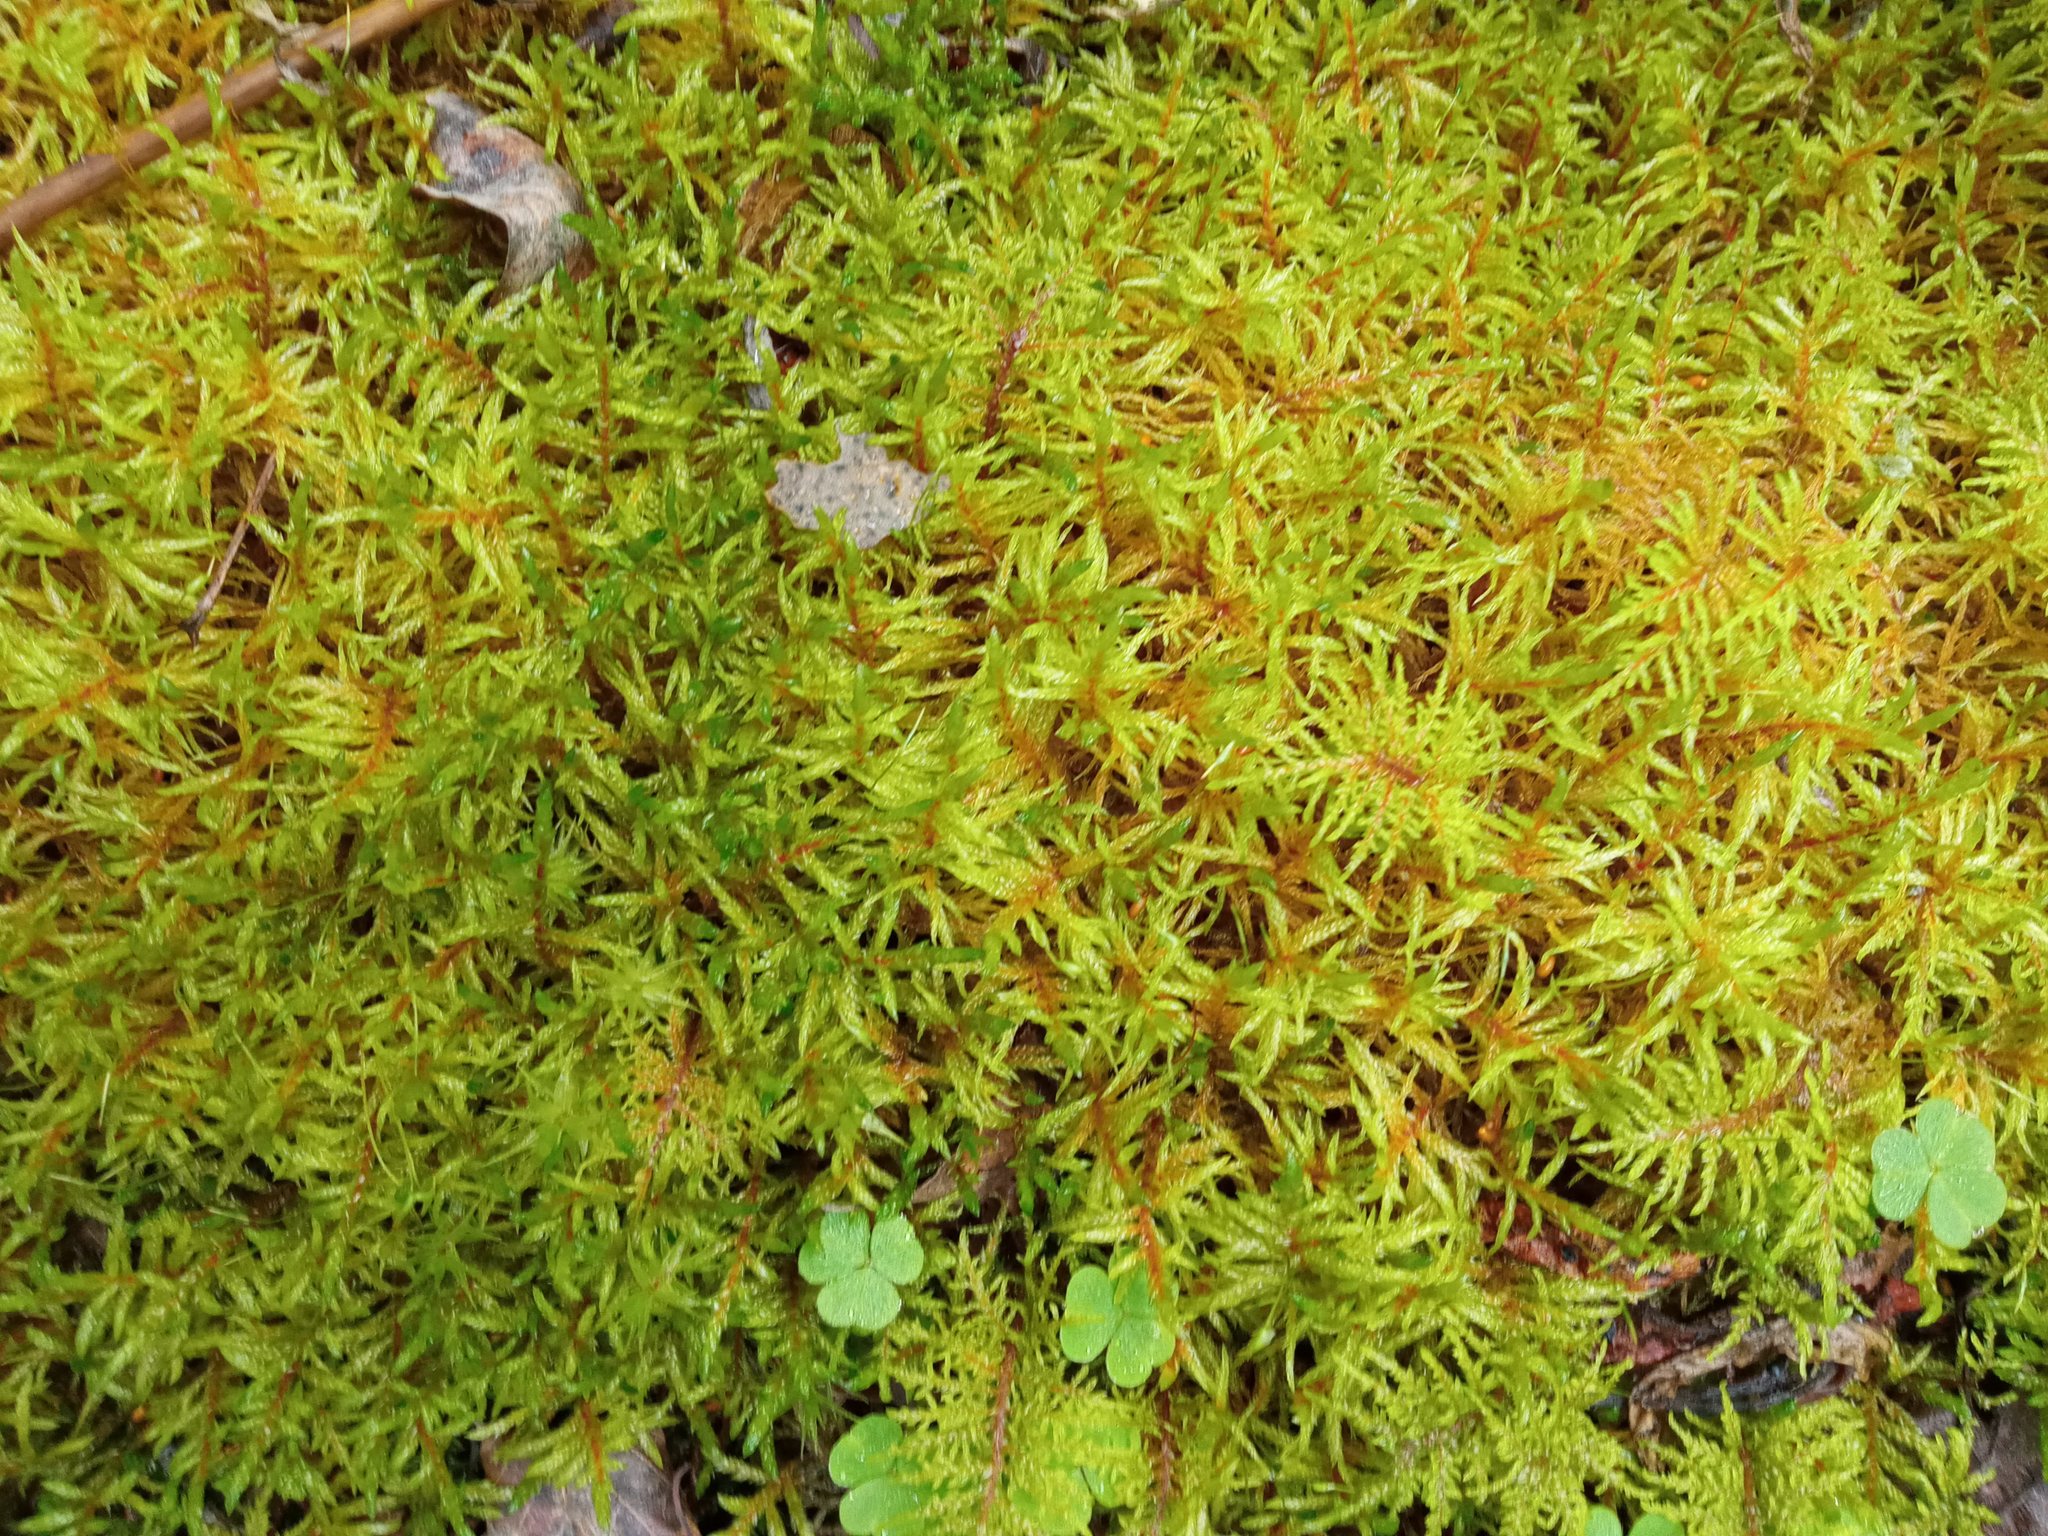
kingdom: Plantae
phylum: Bryophyta
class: Bryopsida
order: Hypnales
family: Hylocomiaceae
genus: Hylocomium
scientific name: Hylocomium splendens
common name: Stairstep moss
